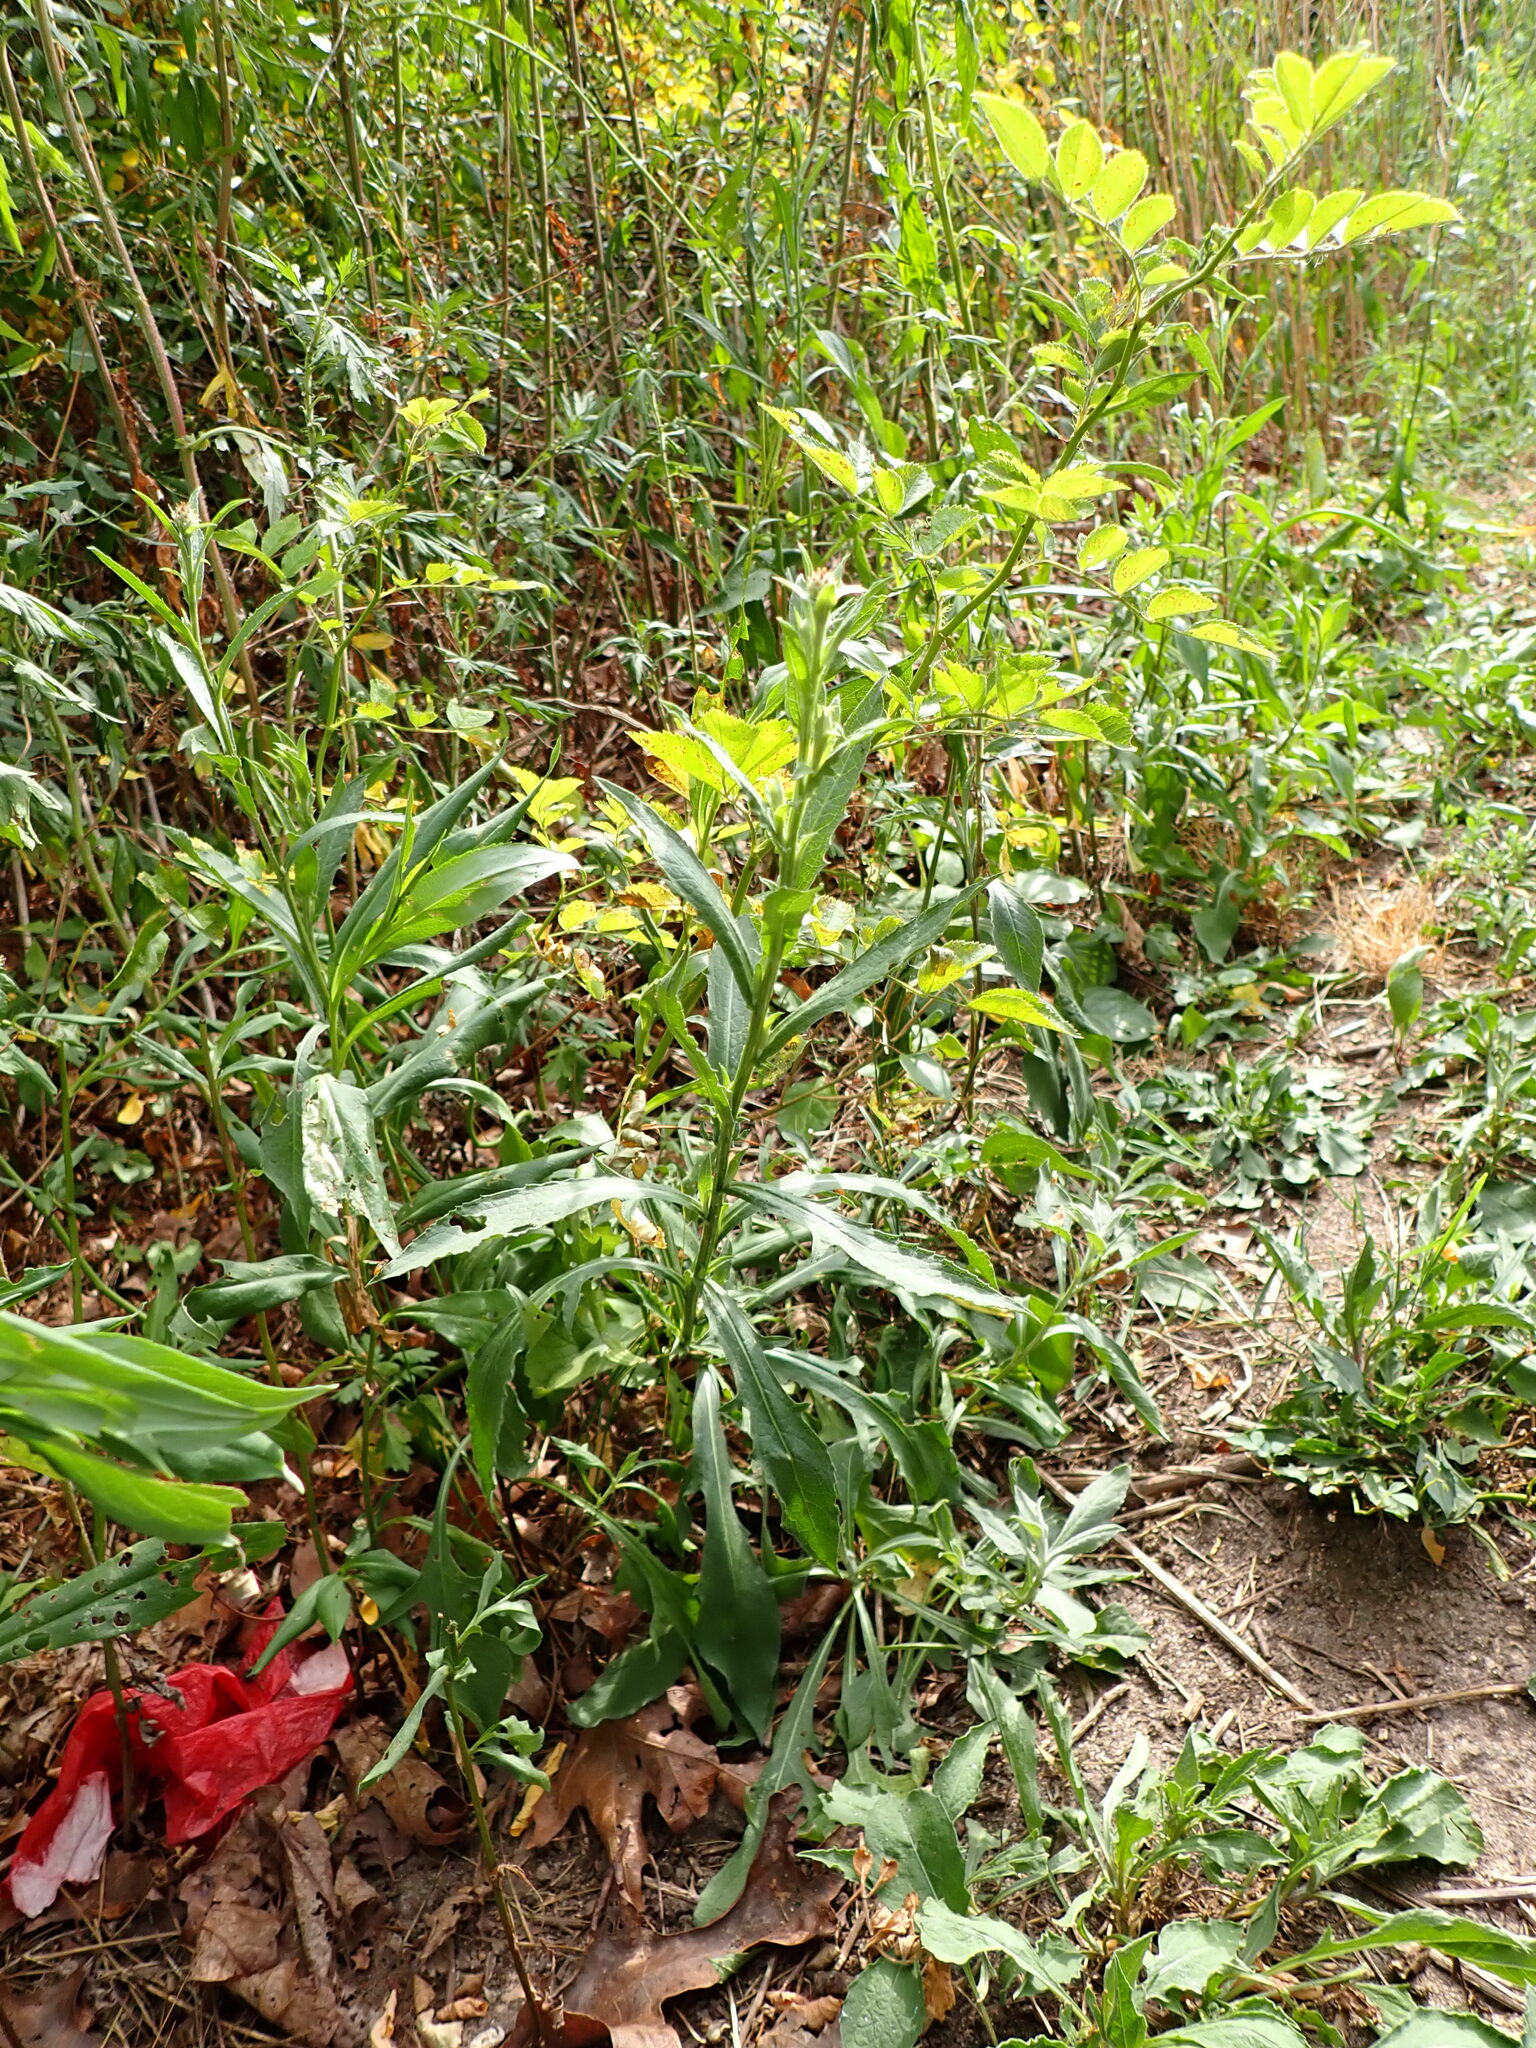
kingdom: Plantae
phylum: Tracheophyta
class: Magnoliopsida
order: Asterales
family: Asteraceae
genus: Centaurea
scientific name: Centaurea nigrescens
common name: Tyrol knapweed
